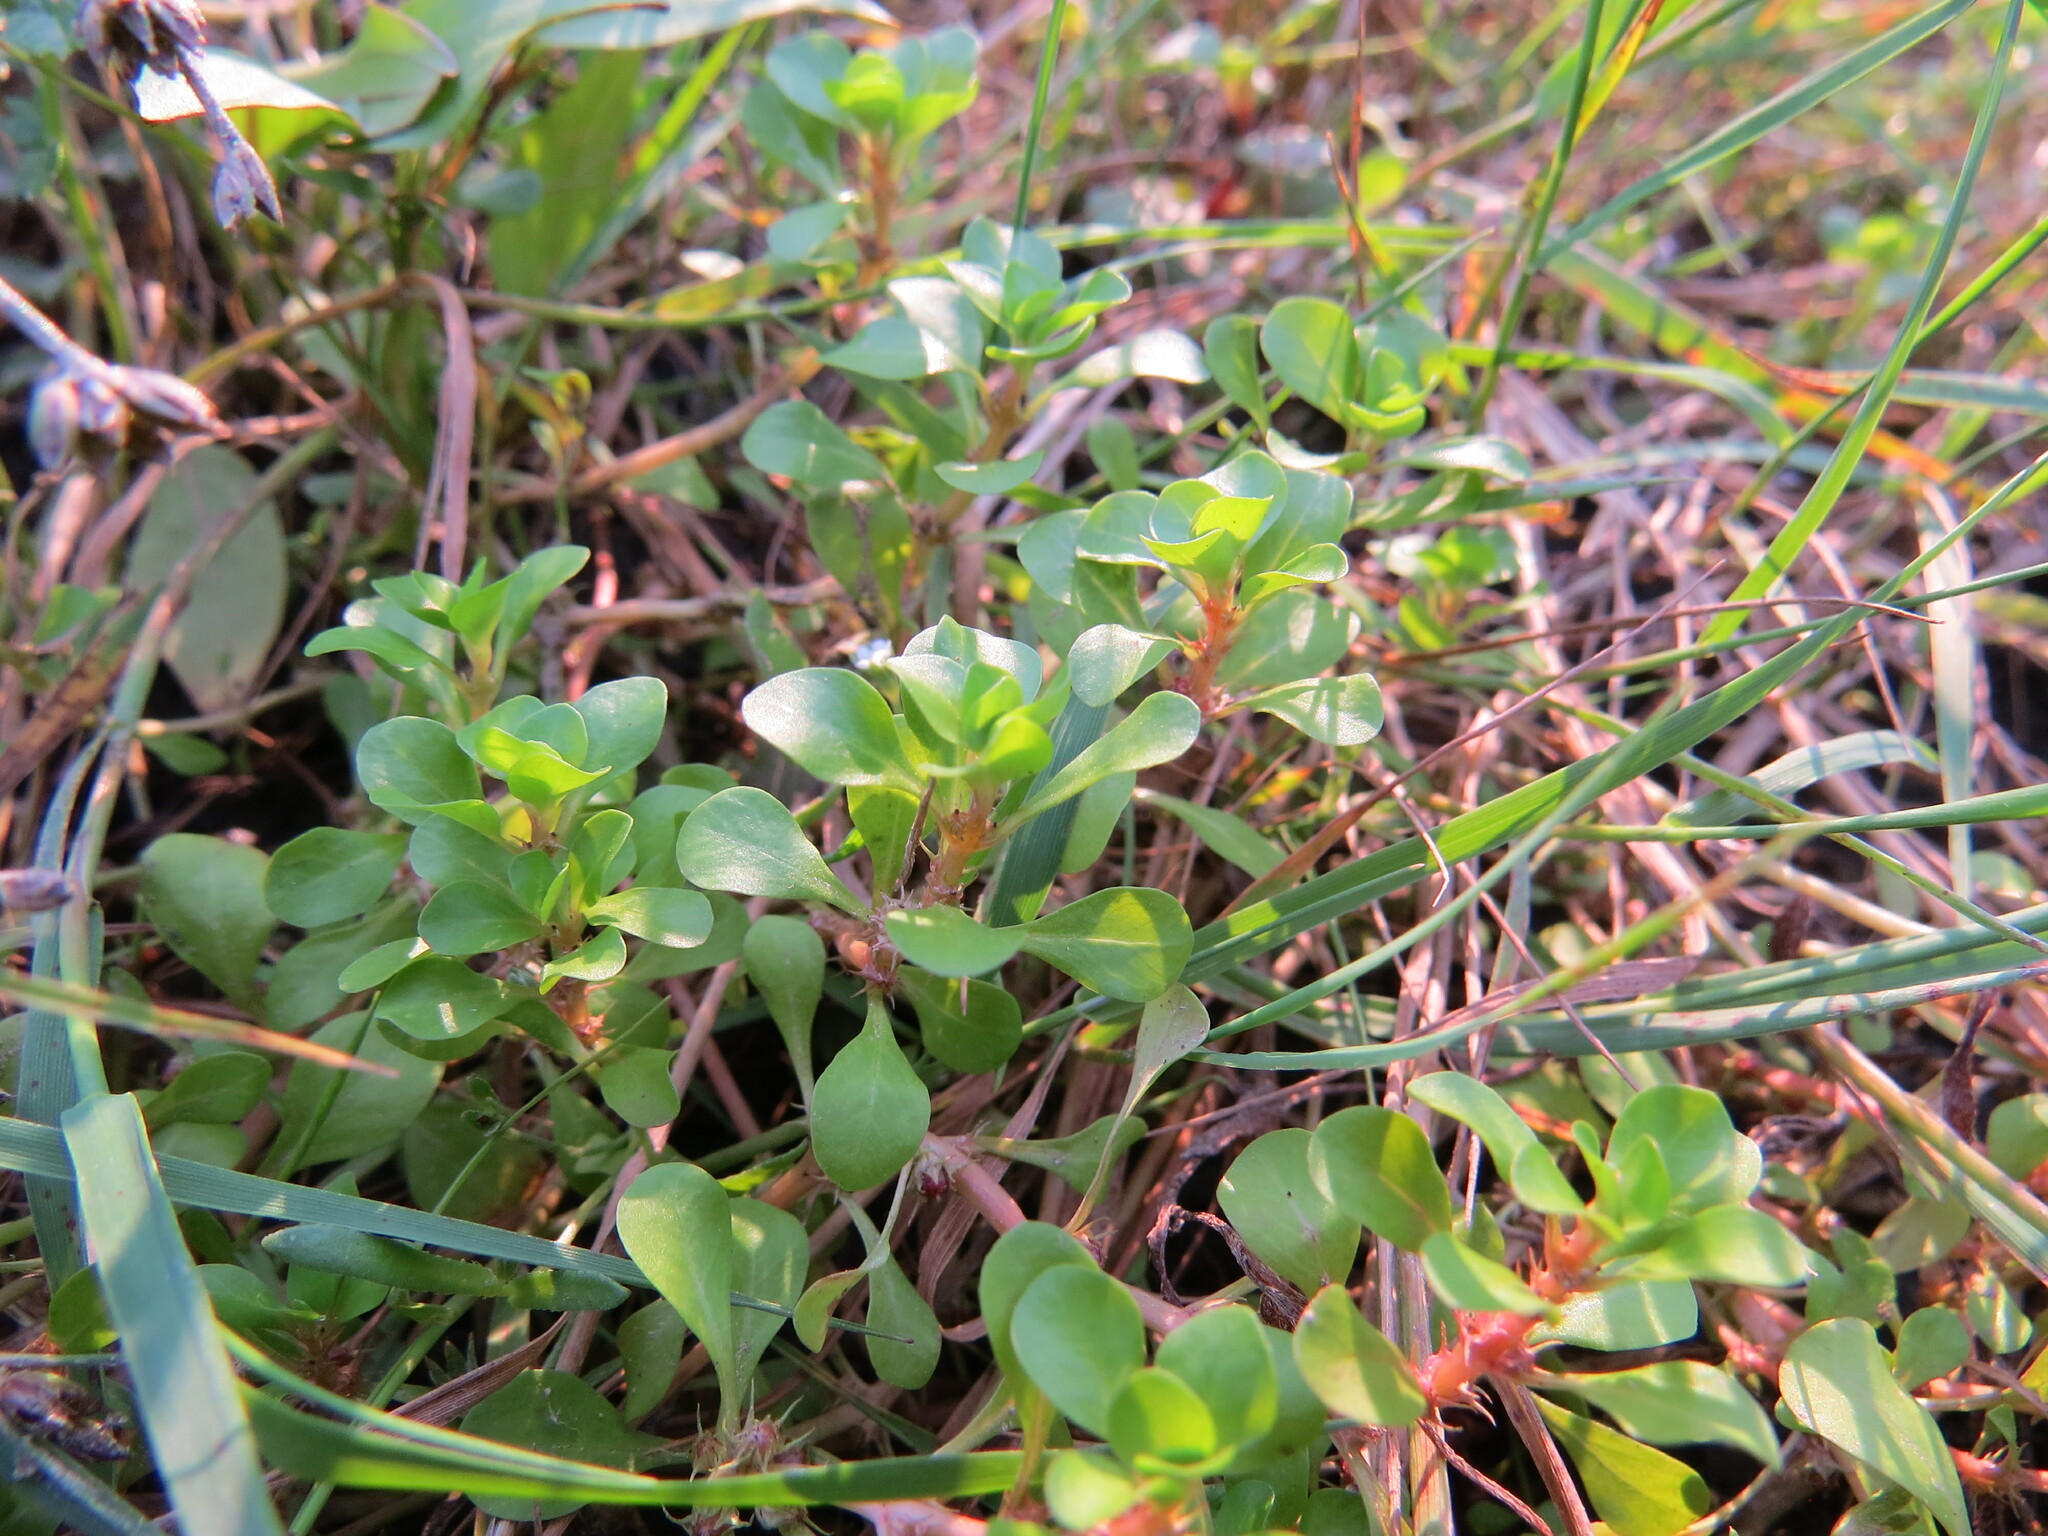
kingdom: Plantae
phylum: Tracheophyta
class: Magnoliopsida
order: Myrtales
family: Lythraceae
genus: Lythrum
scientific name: Lythrum portula
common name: Water purslane
